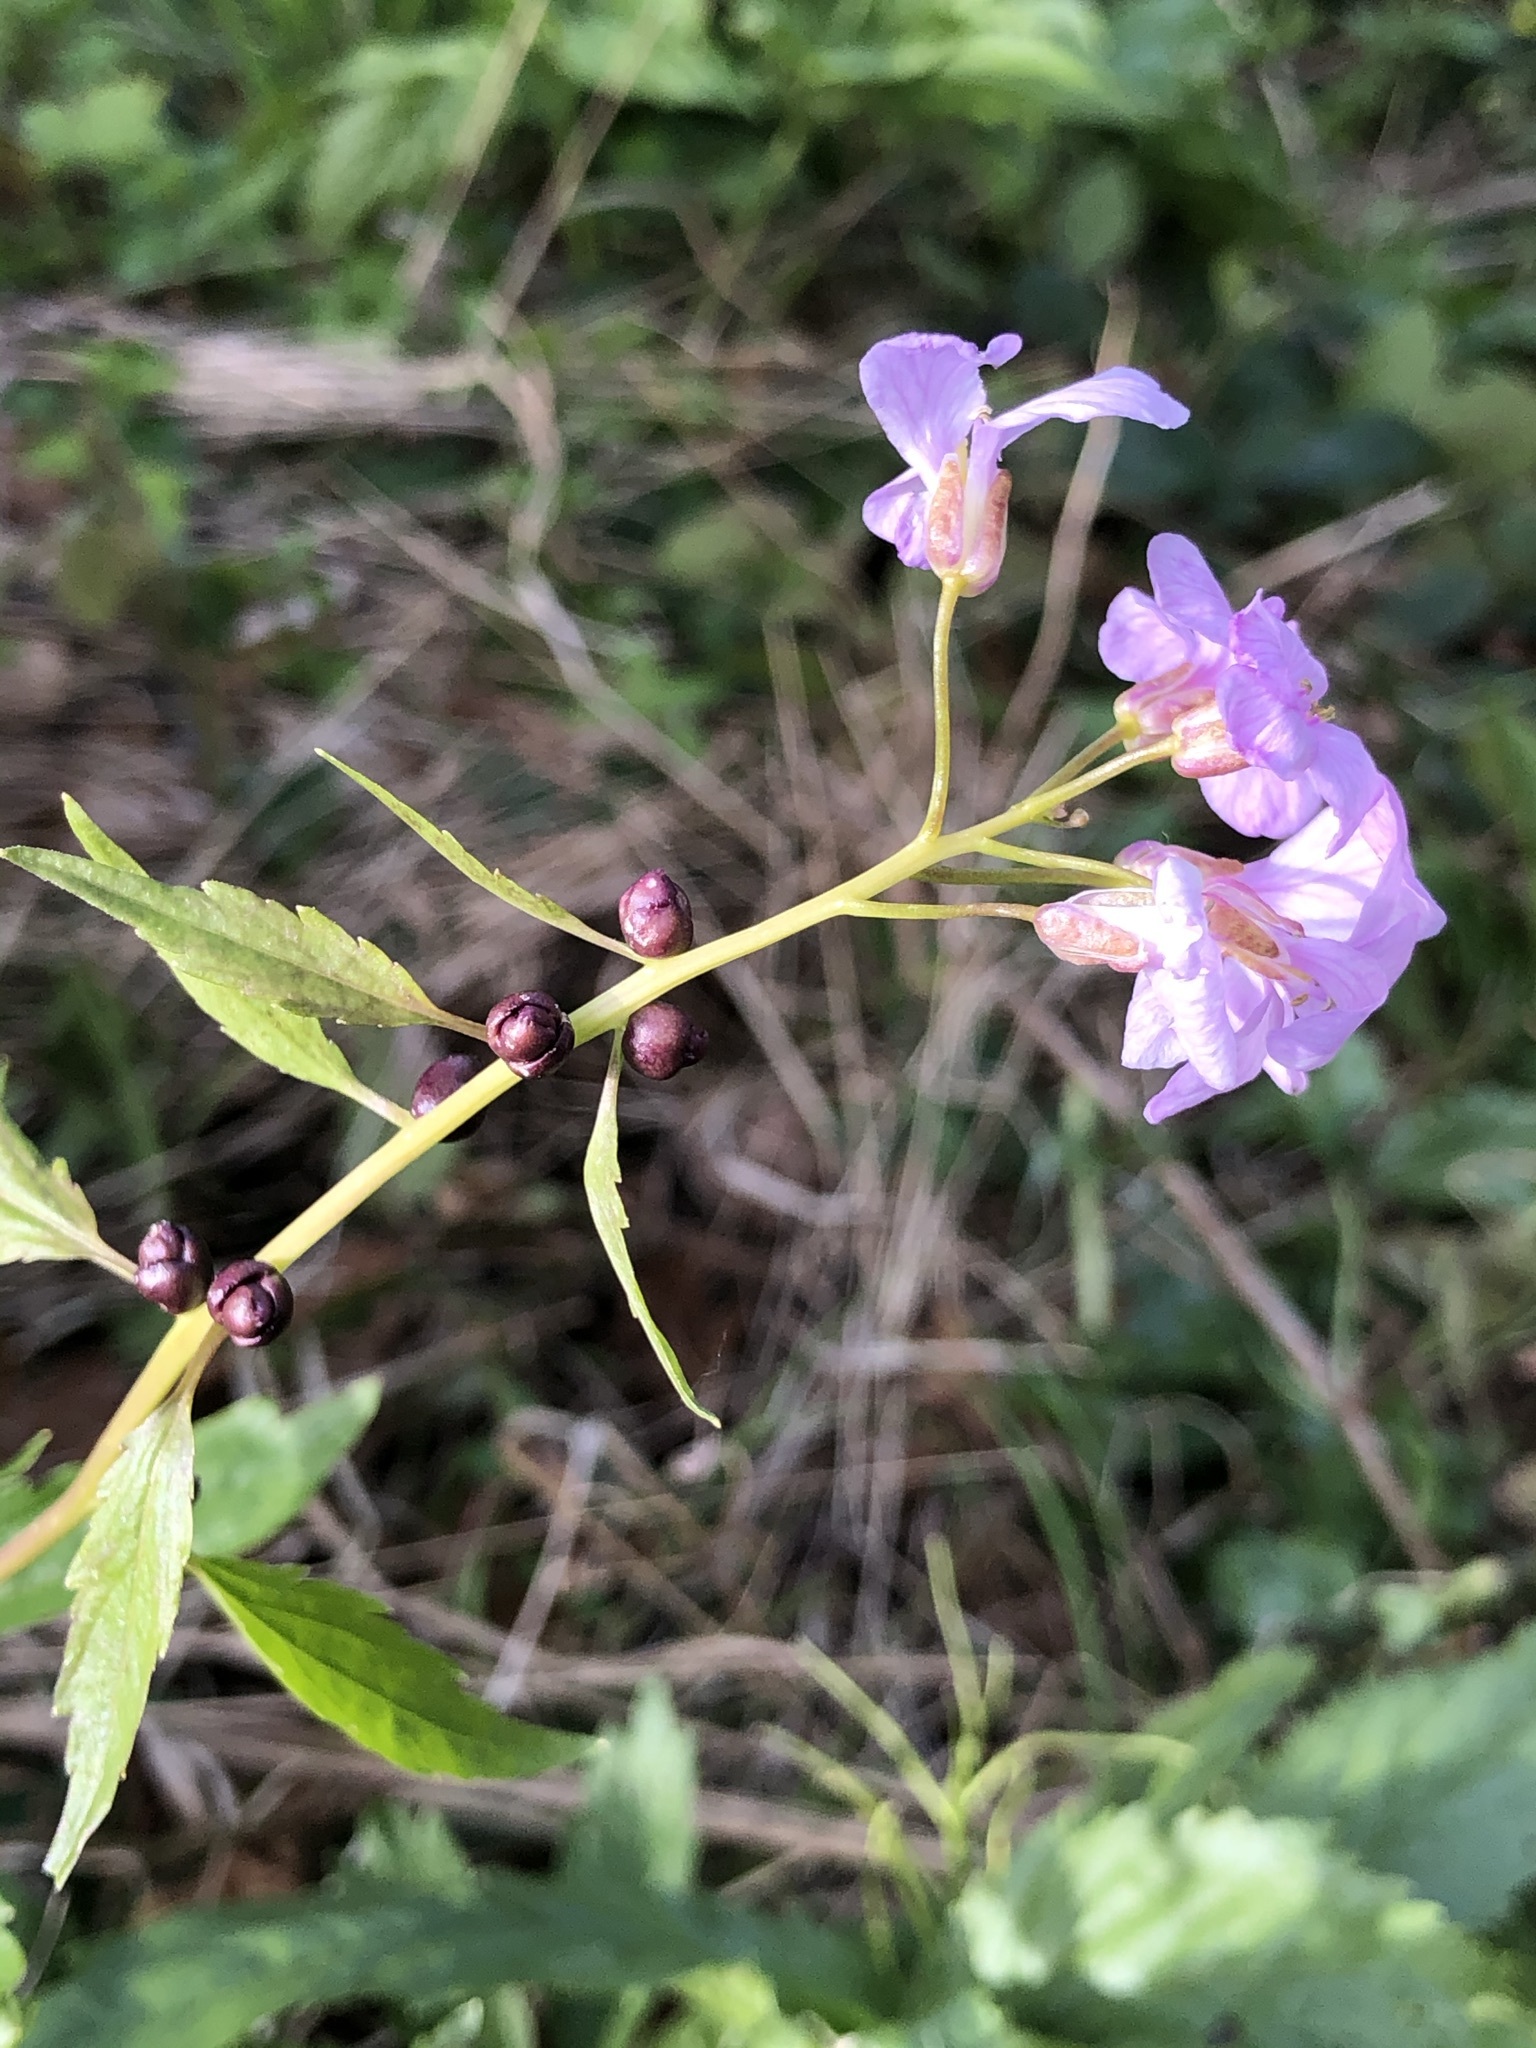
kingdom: Plantae
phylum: Tracheophyta
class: Magnoliopsida
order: Brassicales
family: Brassicaceae
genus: Cardamine
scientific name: Cardamine bulbifera
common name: Coralroot bittercress
